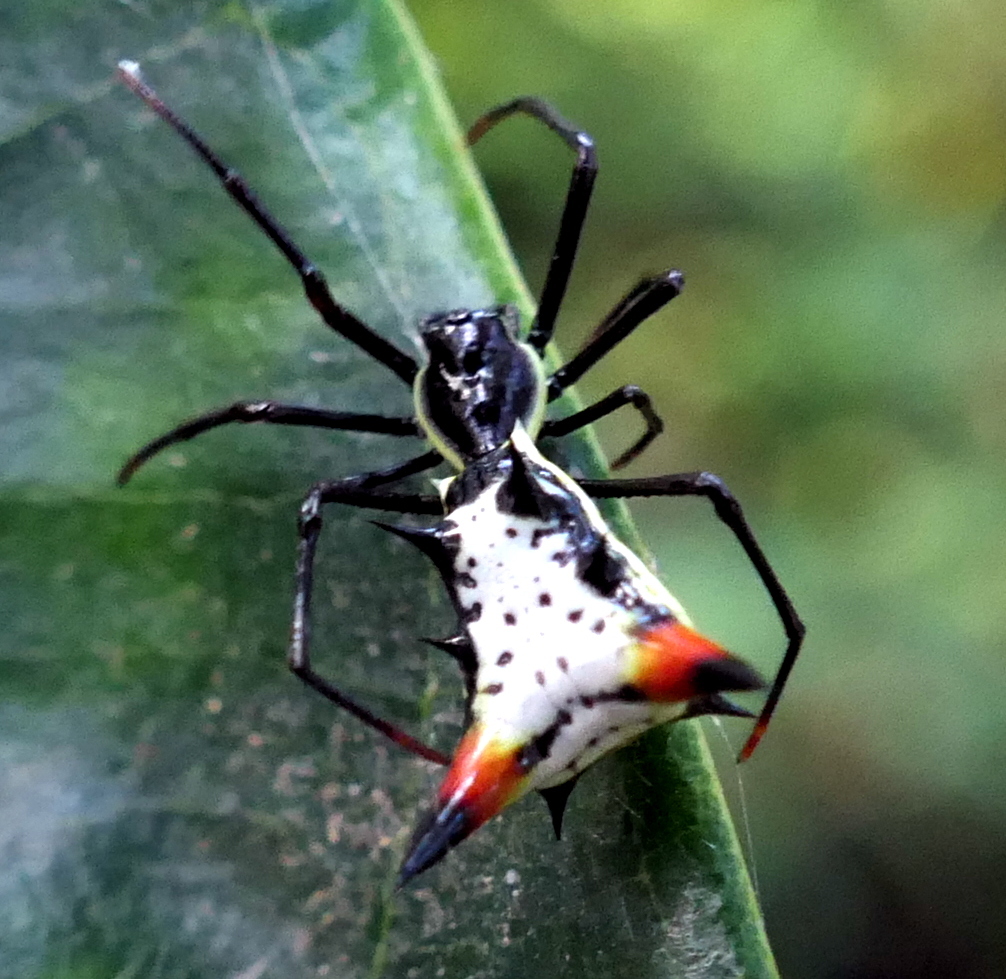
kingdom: Animalia
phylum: Arthropoda
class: Arachnida
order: Araneae
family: Araneidae
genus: Micrathena
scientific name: Micrathena schreibersi
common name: Orb weavers
